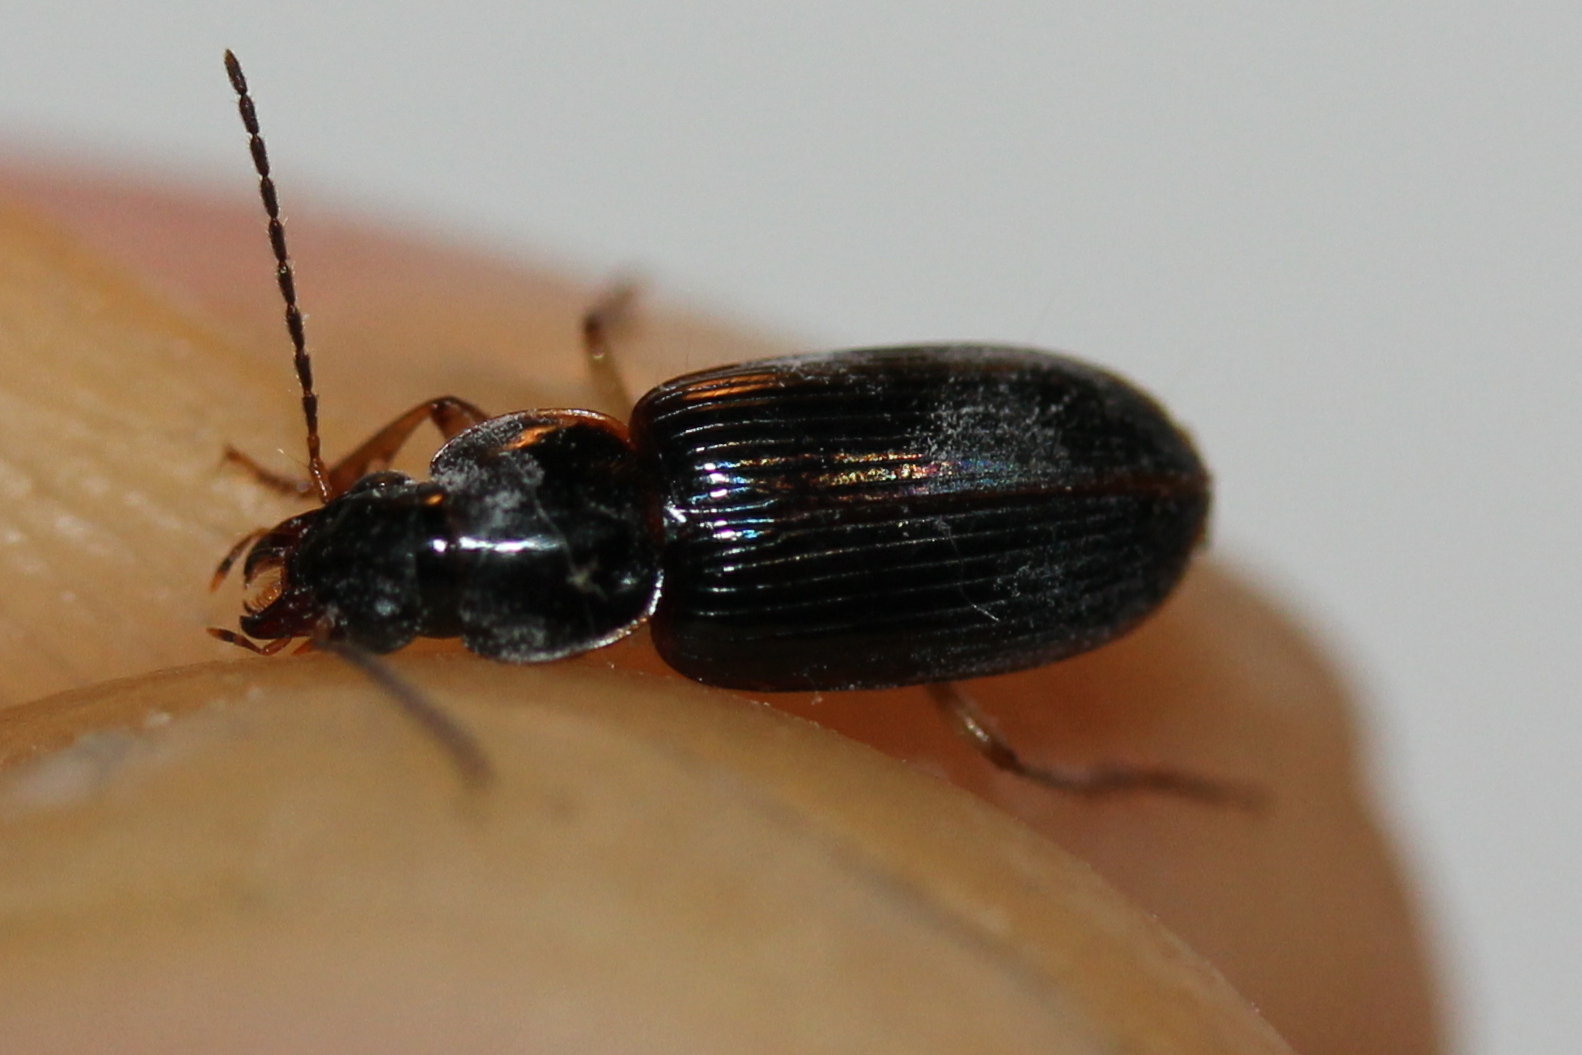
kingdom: Animalia
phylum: Arthropoda
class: Insecta
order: Coleoptera
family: Carabidae
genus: Stenolophus
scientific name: Stenolophus ochropezus
